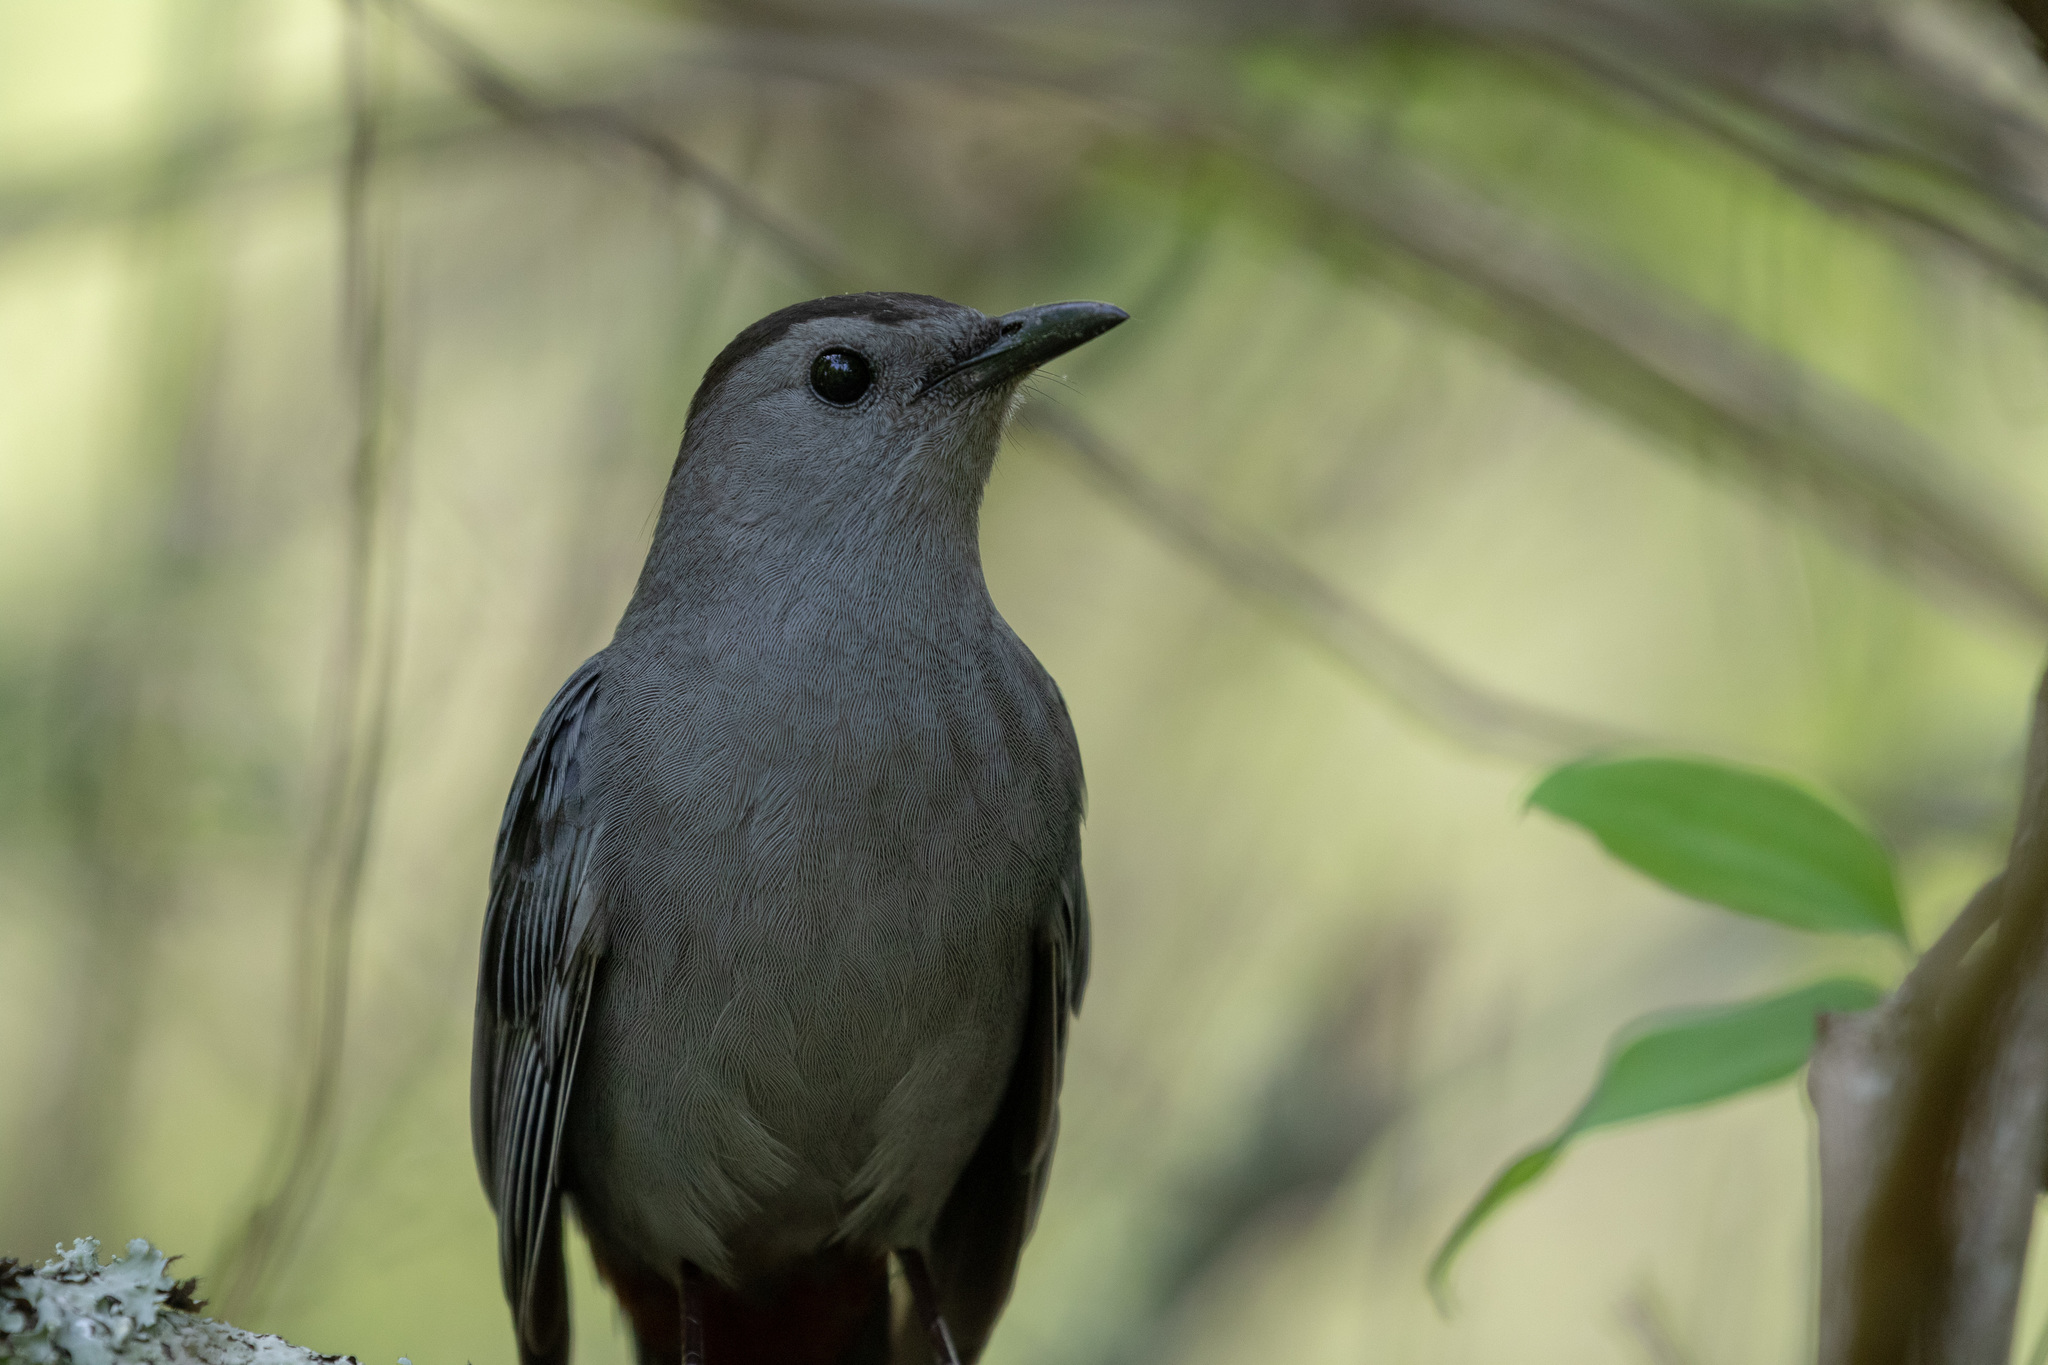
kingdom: Animalia
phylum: Chordata
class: Aves
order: Passeriformes
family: Mimidae
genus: Dumetella
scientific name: Dumetella carolinensis
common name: Gray catbird
